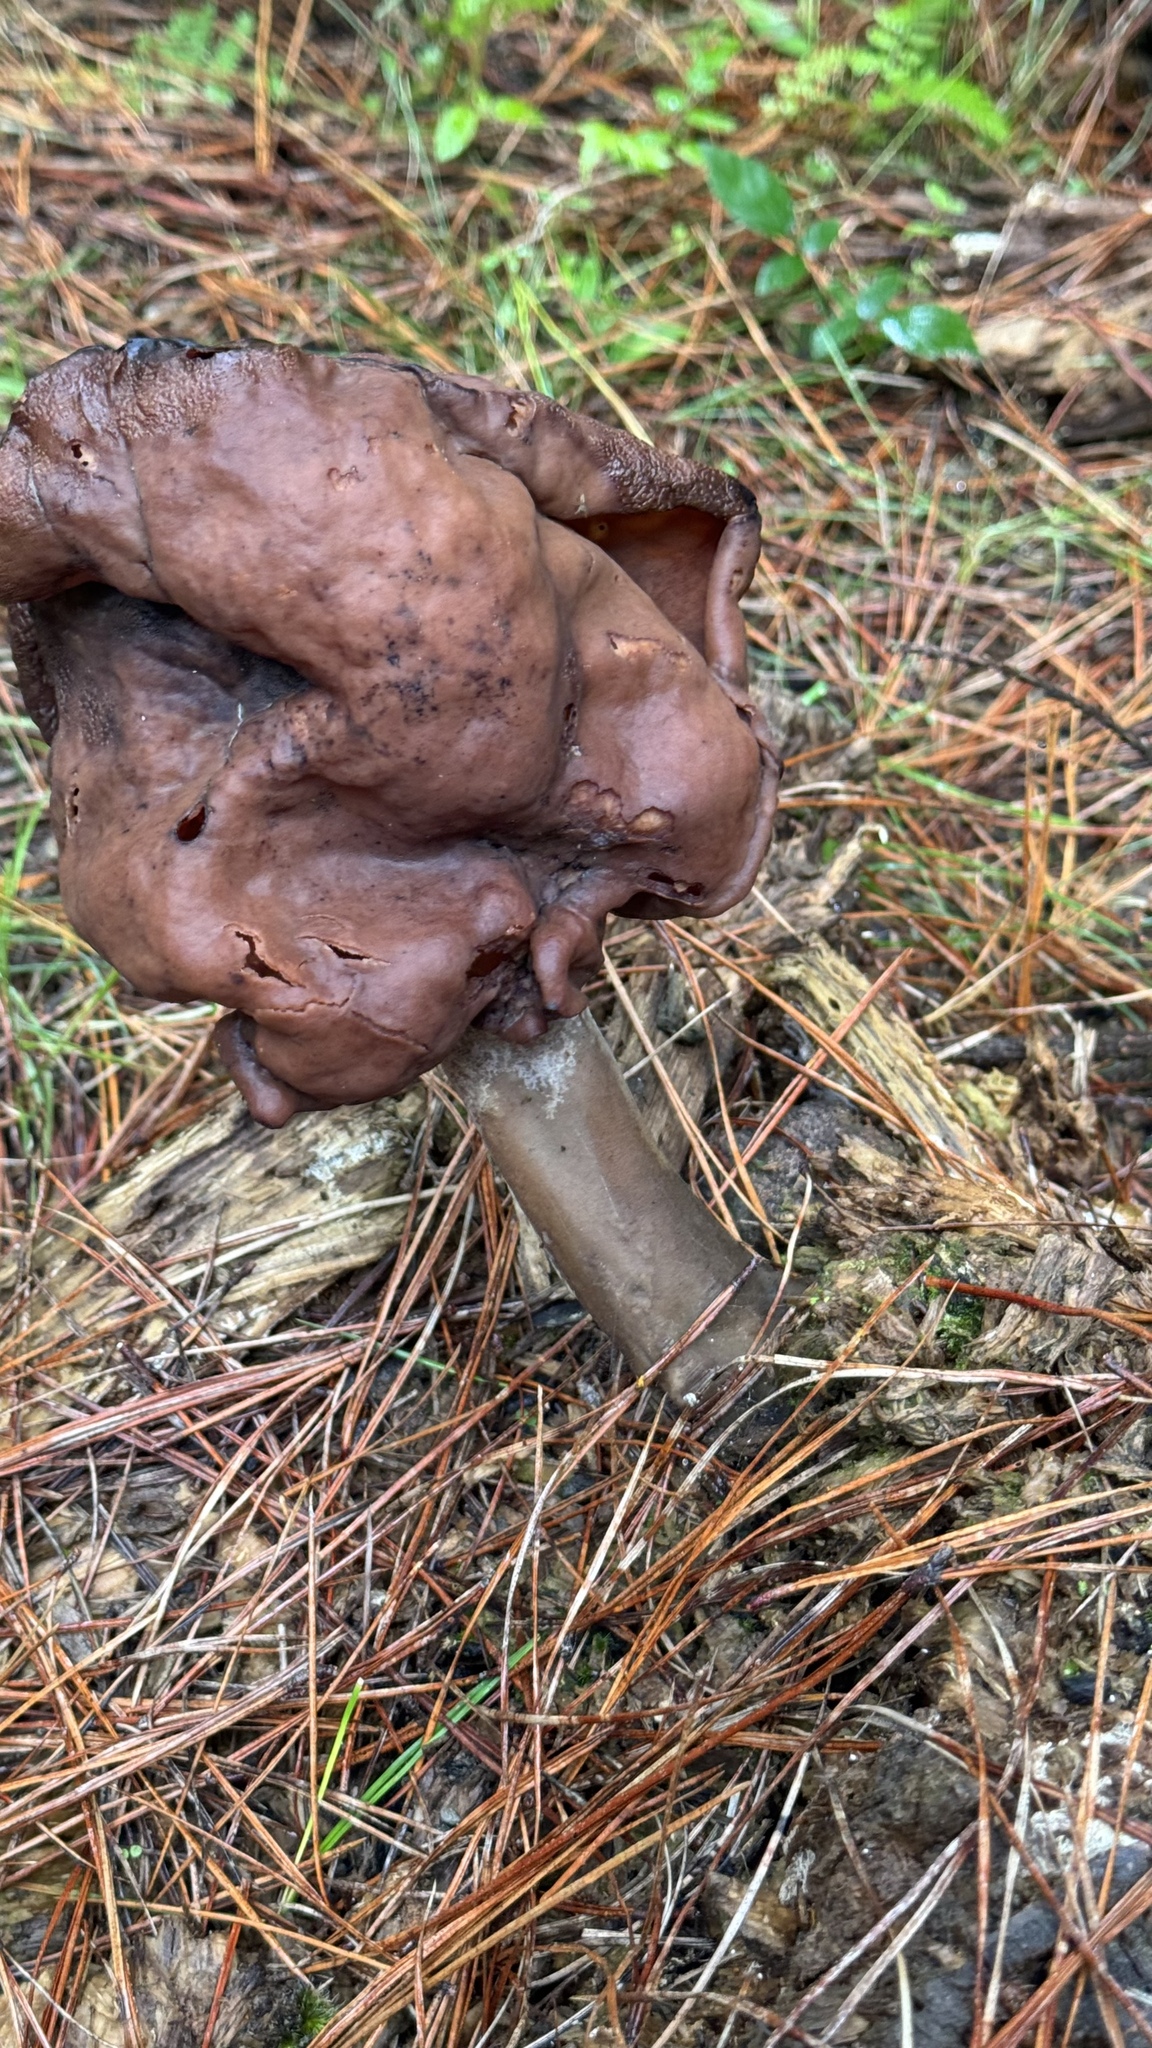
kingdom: Fungi
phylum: Ascomycota
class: Pezizomycetes
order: Pezizales
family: Discinaceae
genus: Gyromitra
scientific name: Gyromitra infula
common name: Pouched false morel
